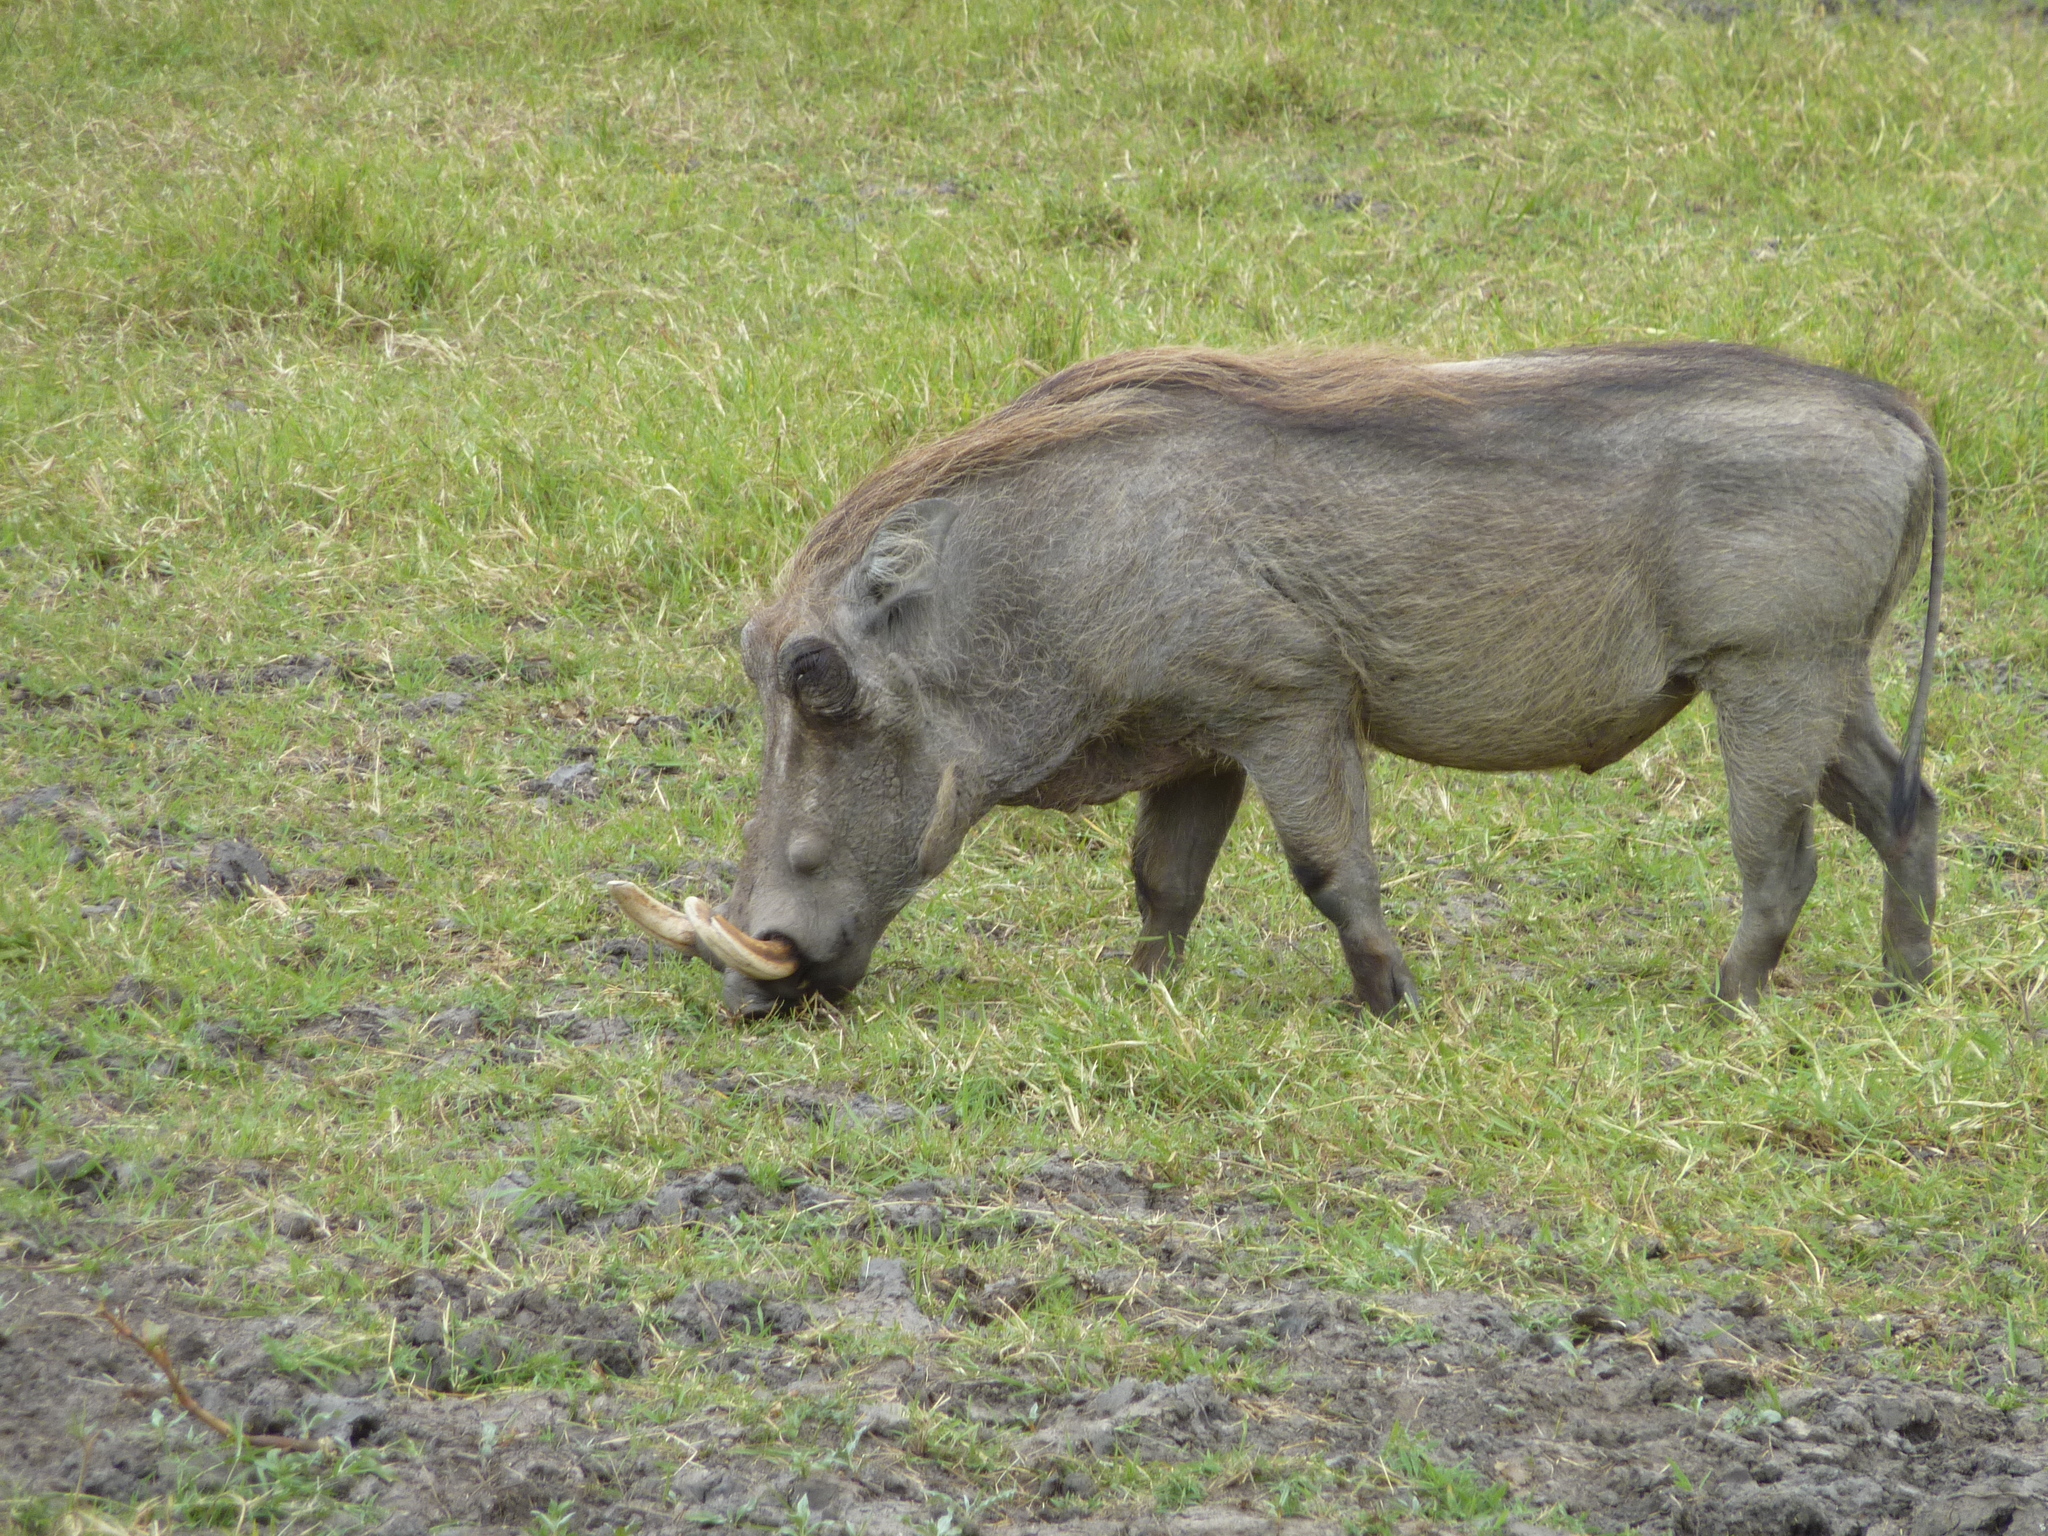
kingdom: Animalia
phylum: Chordata
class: Mammalia
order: Artiodactyla
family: Suidae
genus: Phacochoerus
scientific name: Phacochoerus africanus
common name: Common warthog
